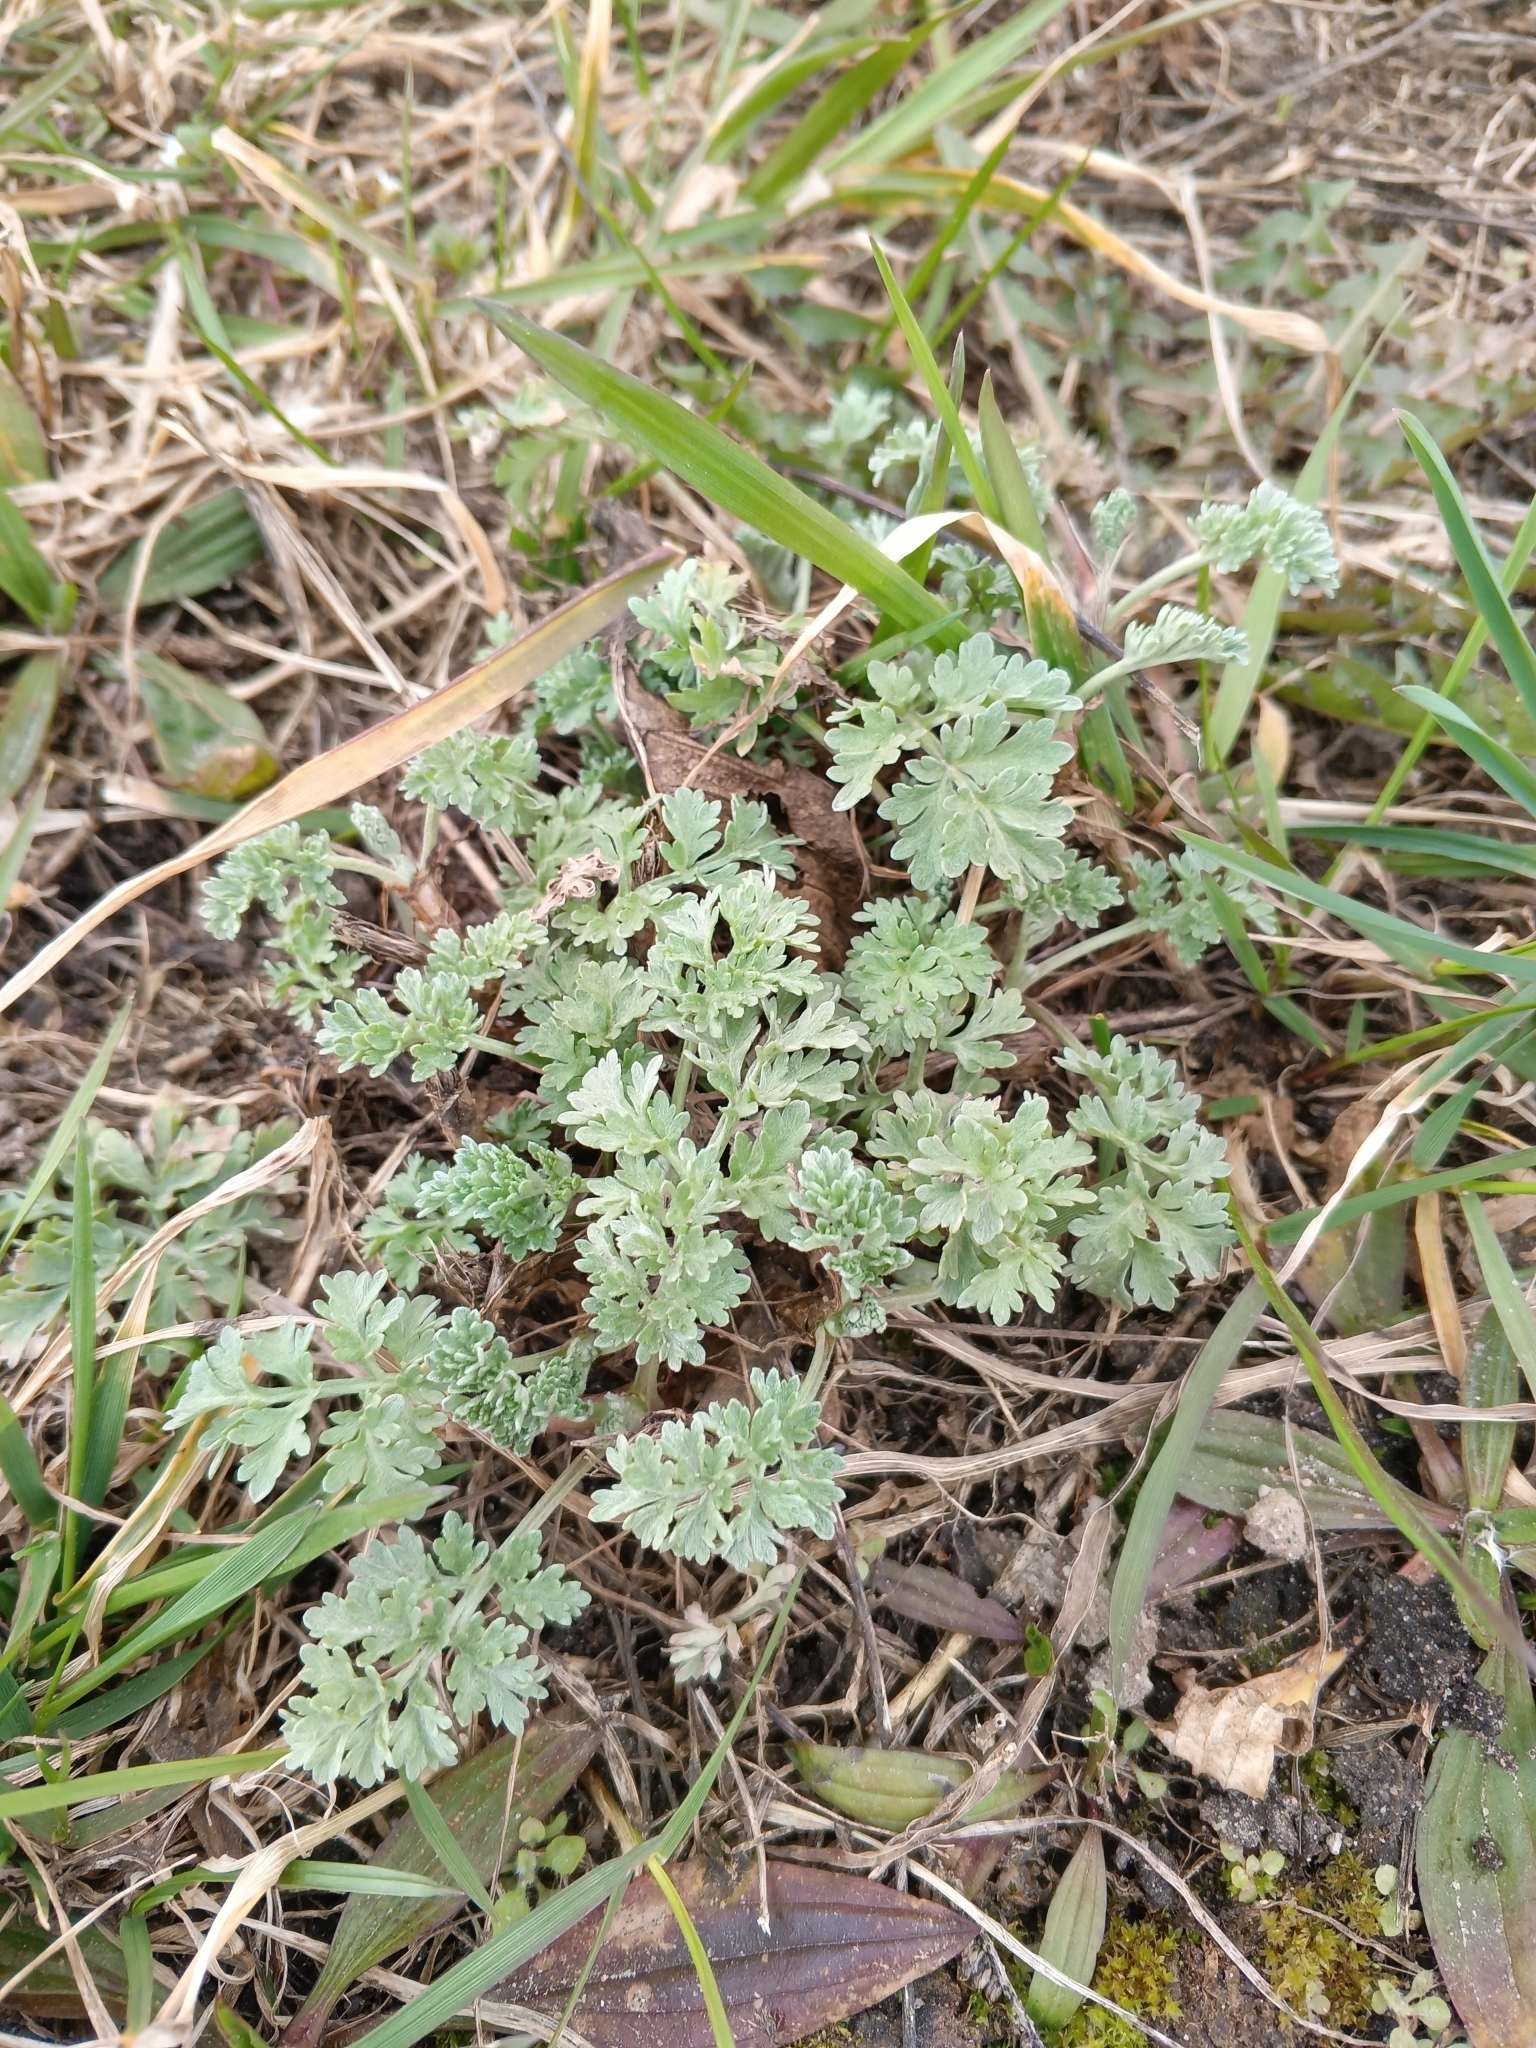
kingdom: Plantae
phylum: Tracheophyta
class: Magnoliopsida
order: Asterales
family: Asteraceae
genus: Artemisia
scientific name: Artemisia absinthium
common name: Wormwood
